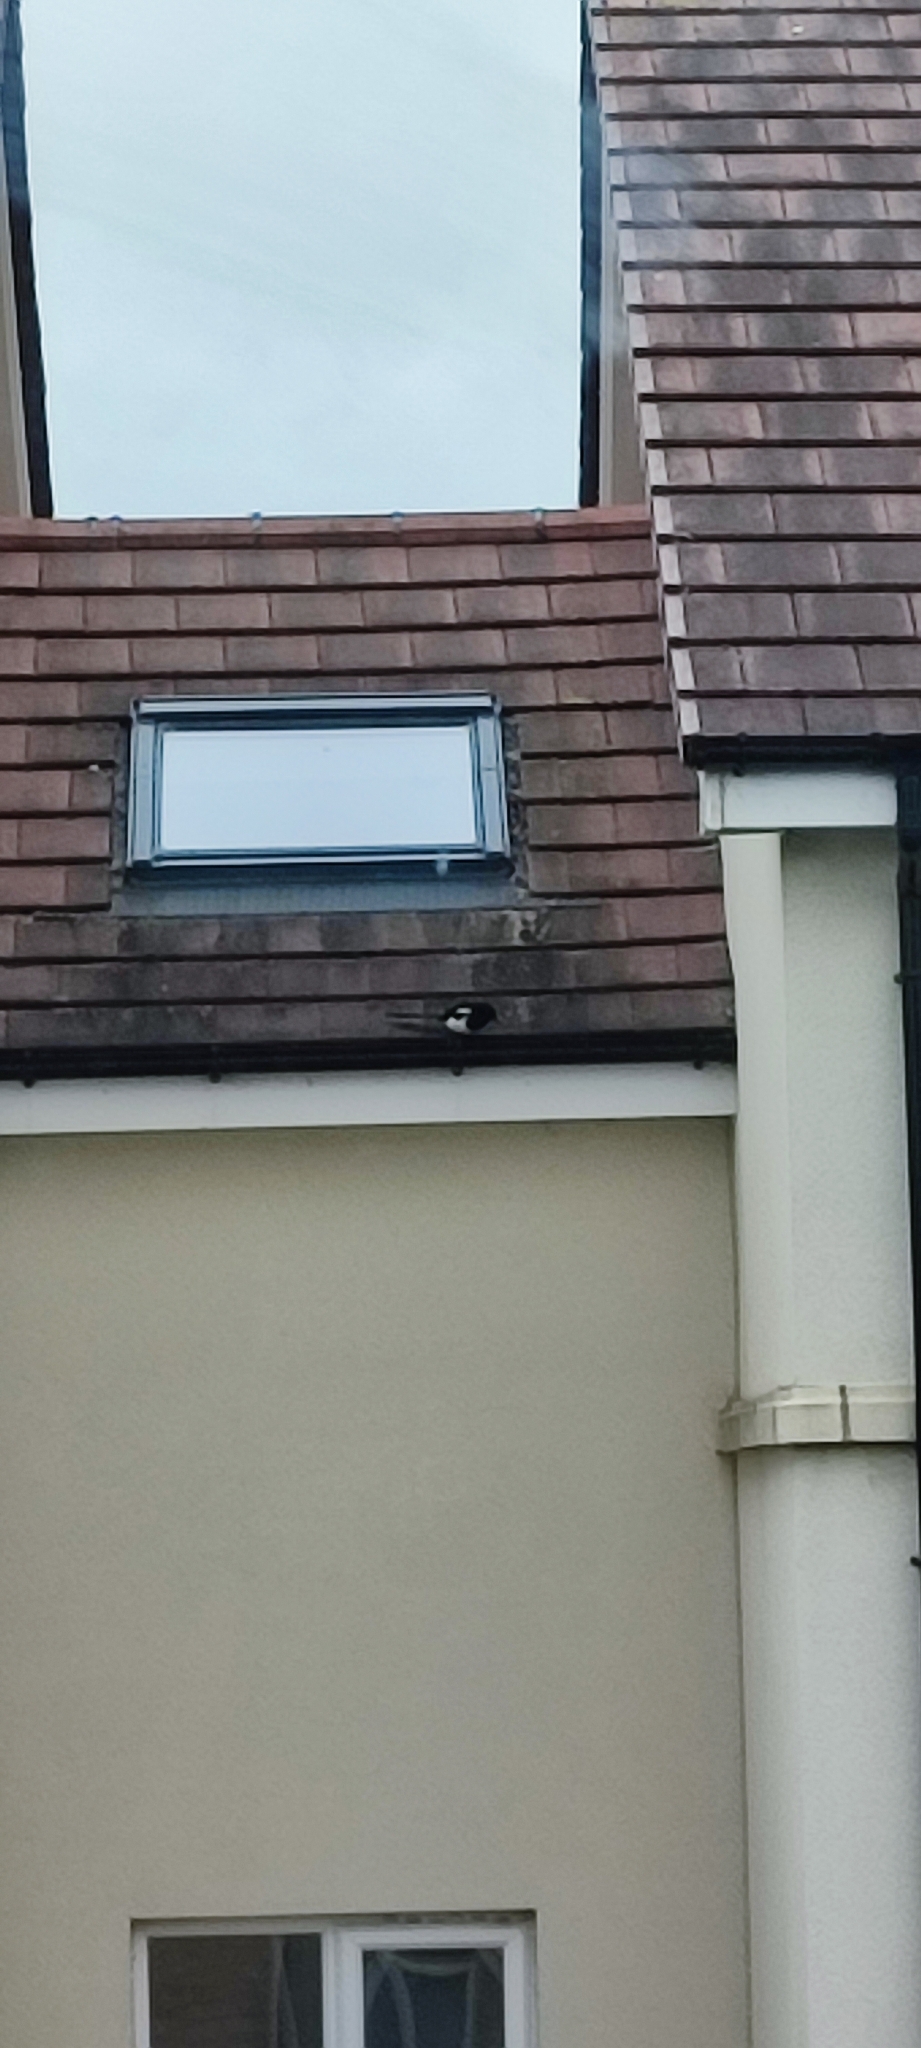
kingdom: Animalia
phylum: Chordata
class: Aves
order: Passeriformes
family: Corvidae
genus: Pica
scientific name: Pica pica
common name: Eurasian magpie
